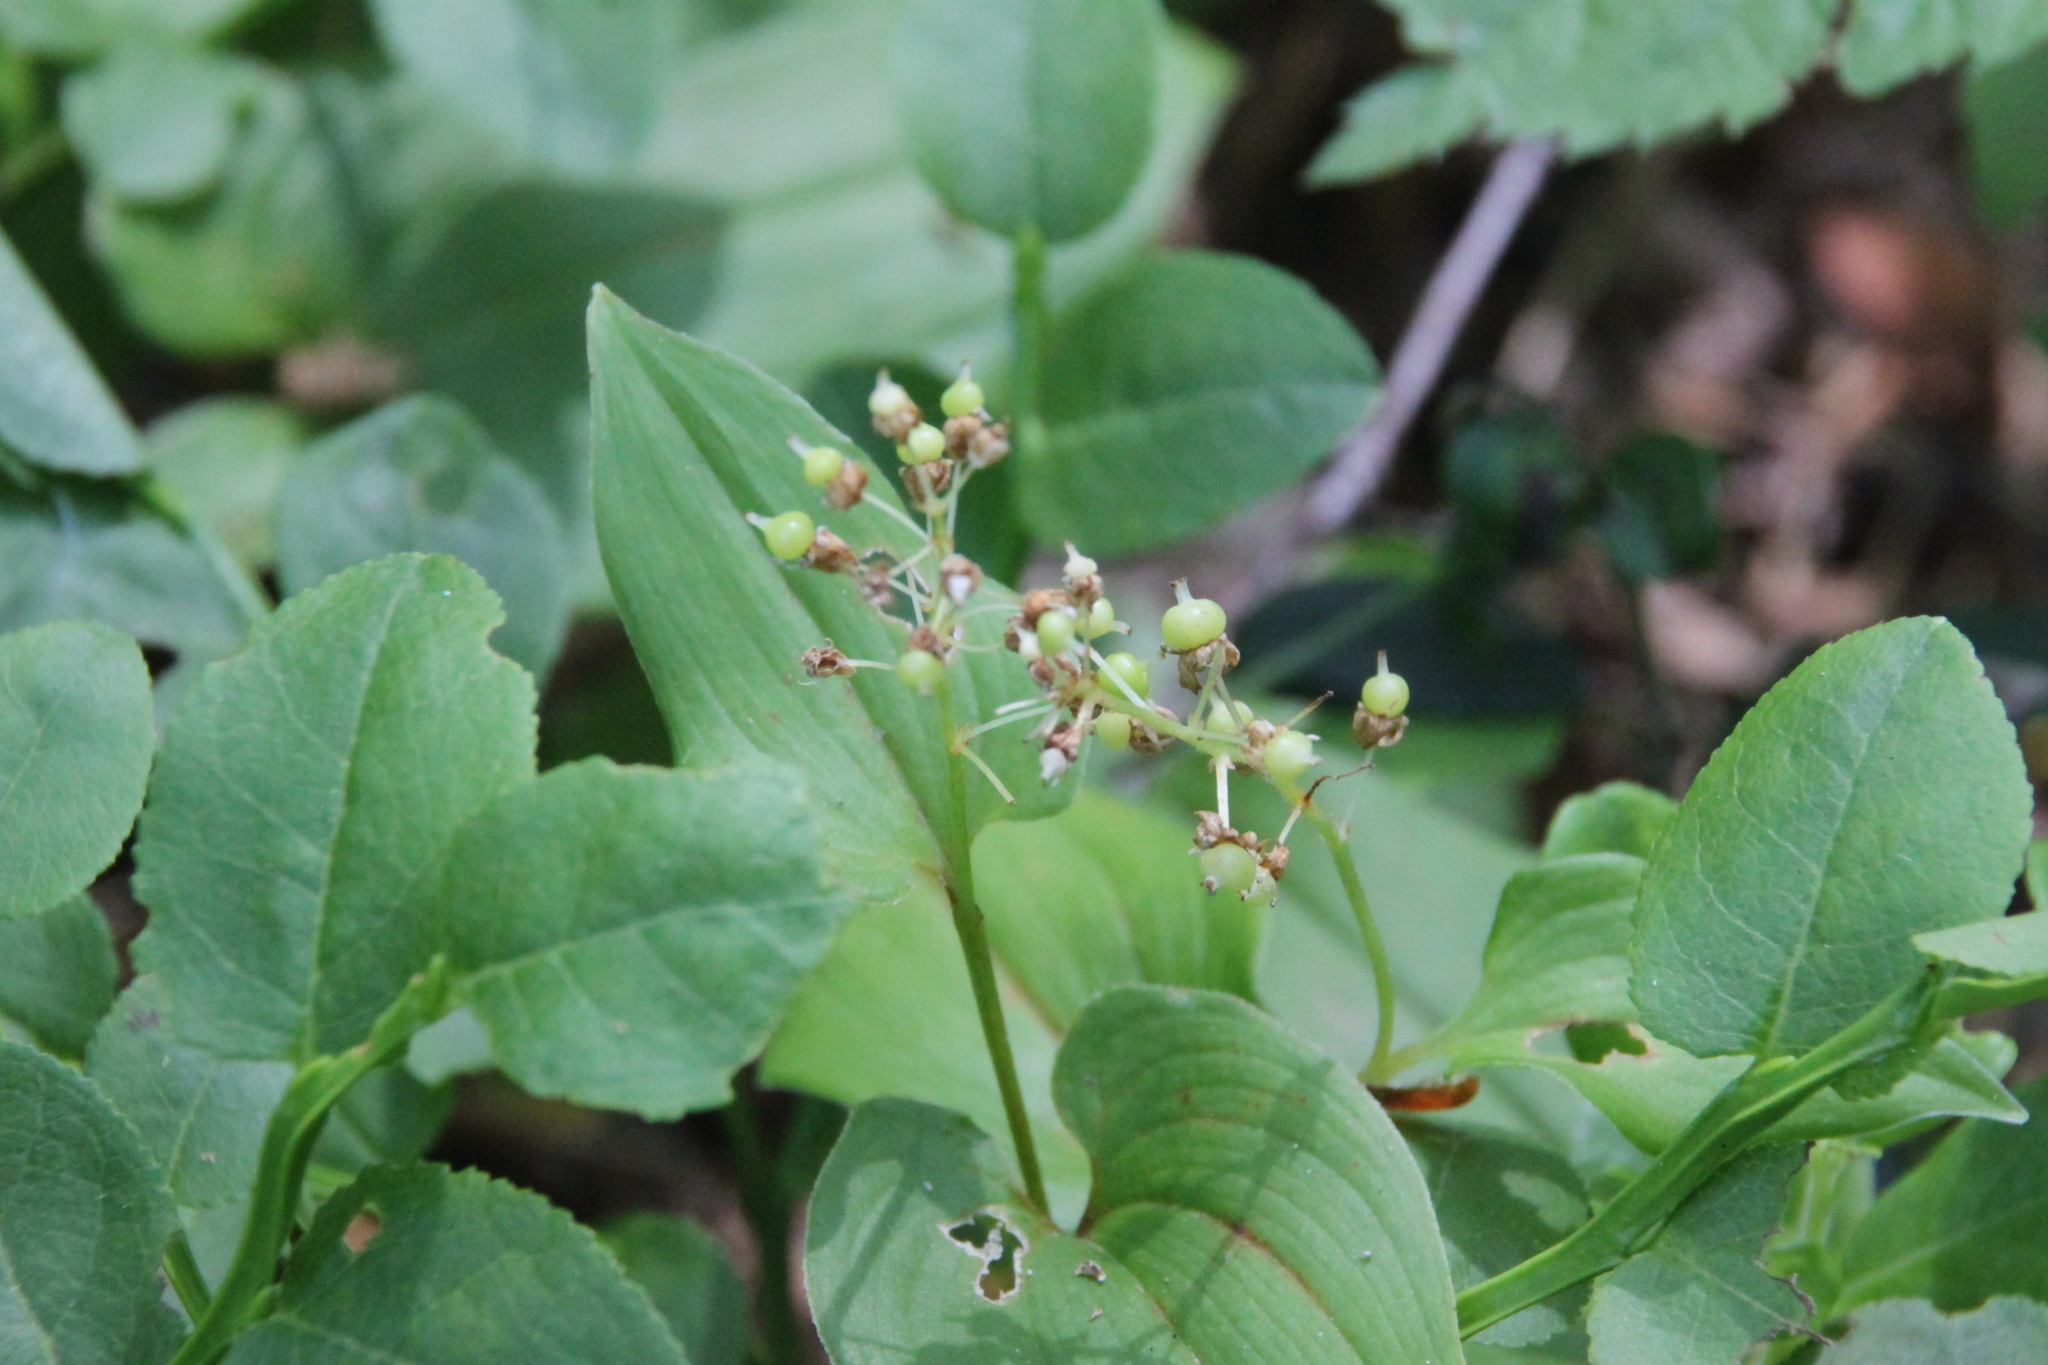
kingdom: Plantae
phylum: Tracheophyta
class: Liliopsida
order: Asparagales
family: Asparagaceae
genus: Maianthemum
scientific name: Maianthemum bifolium
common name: May lily
